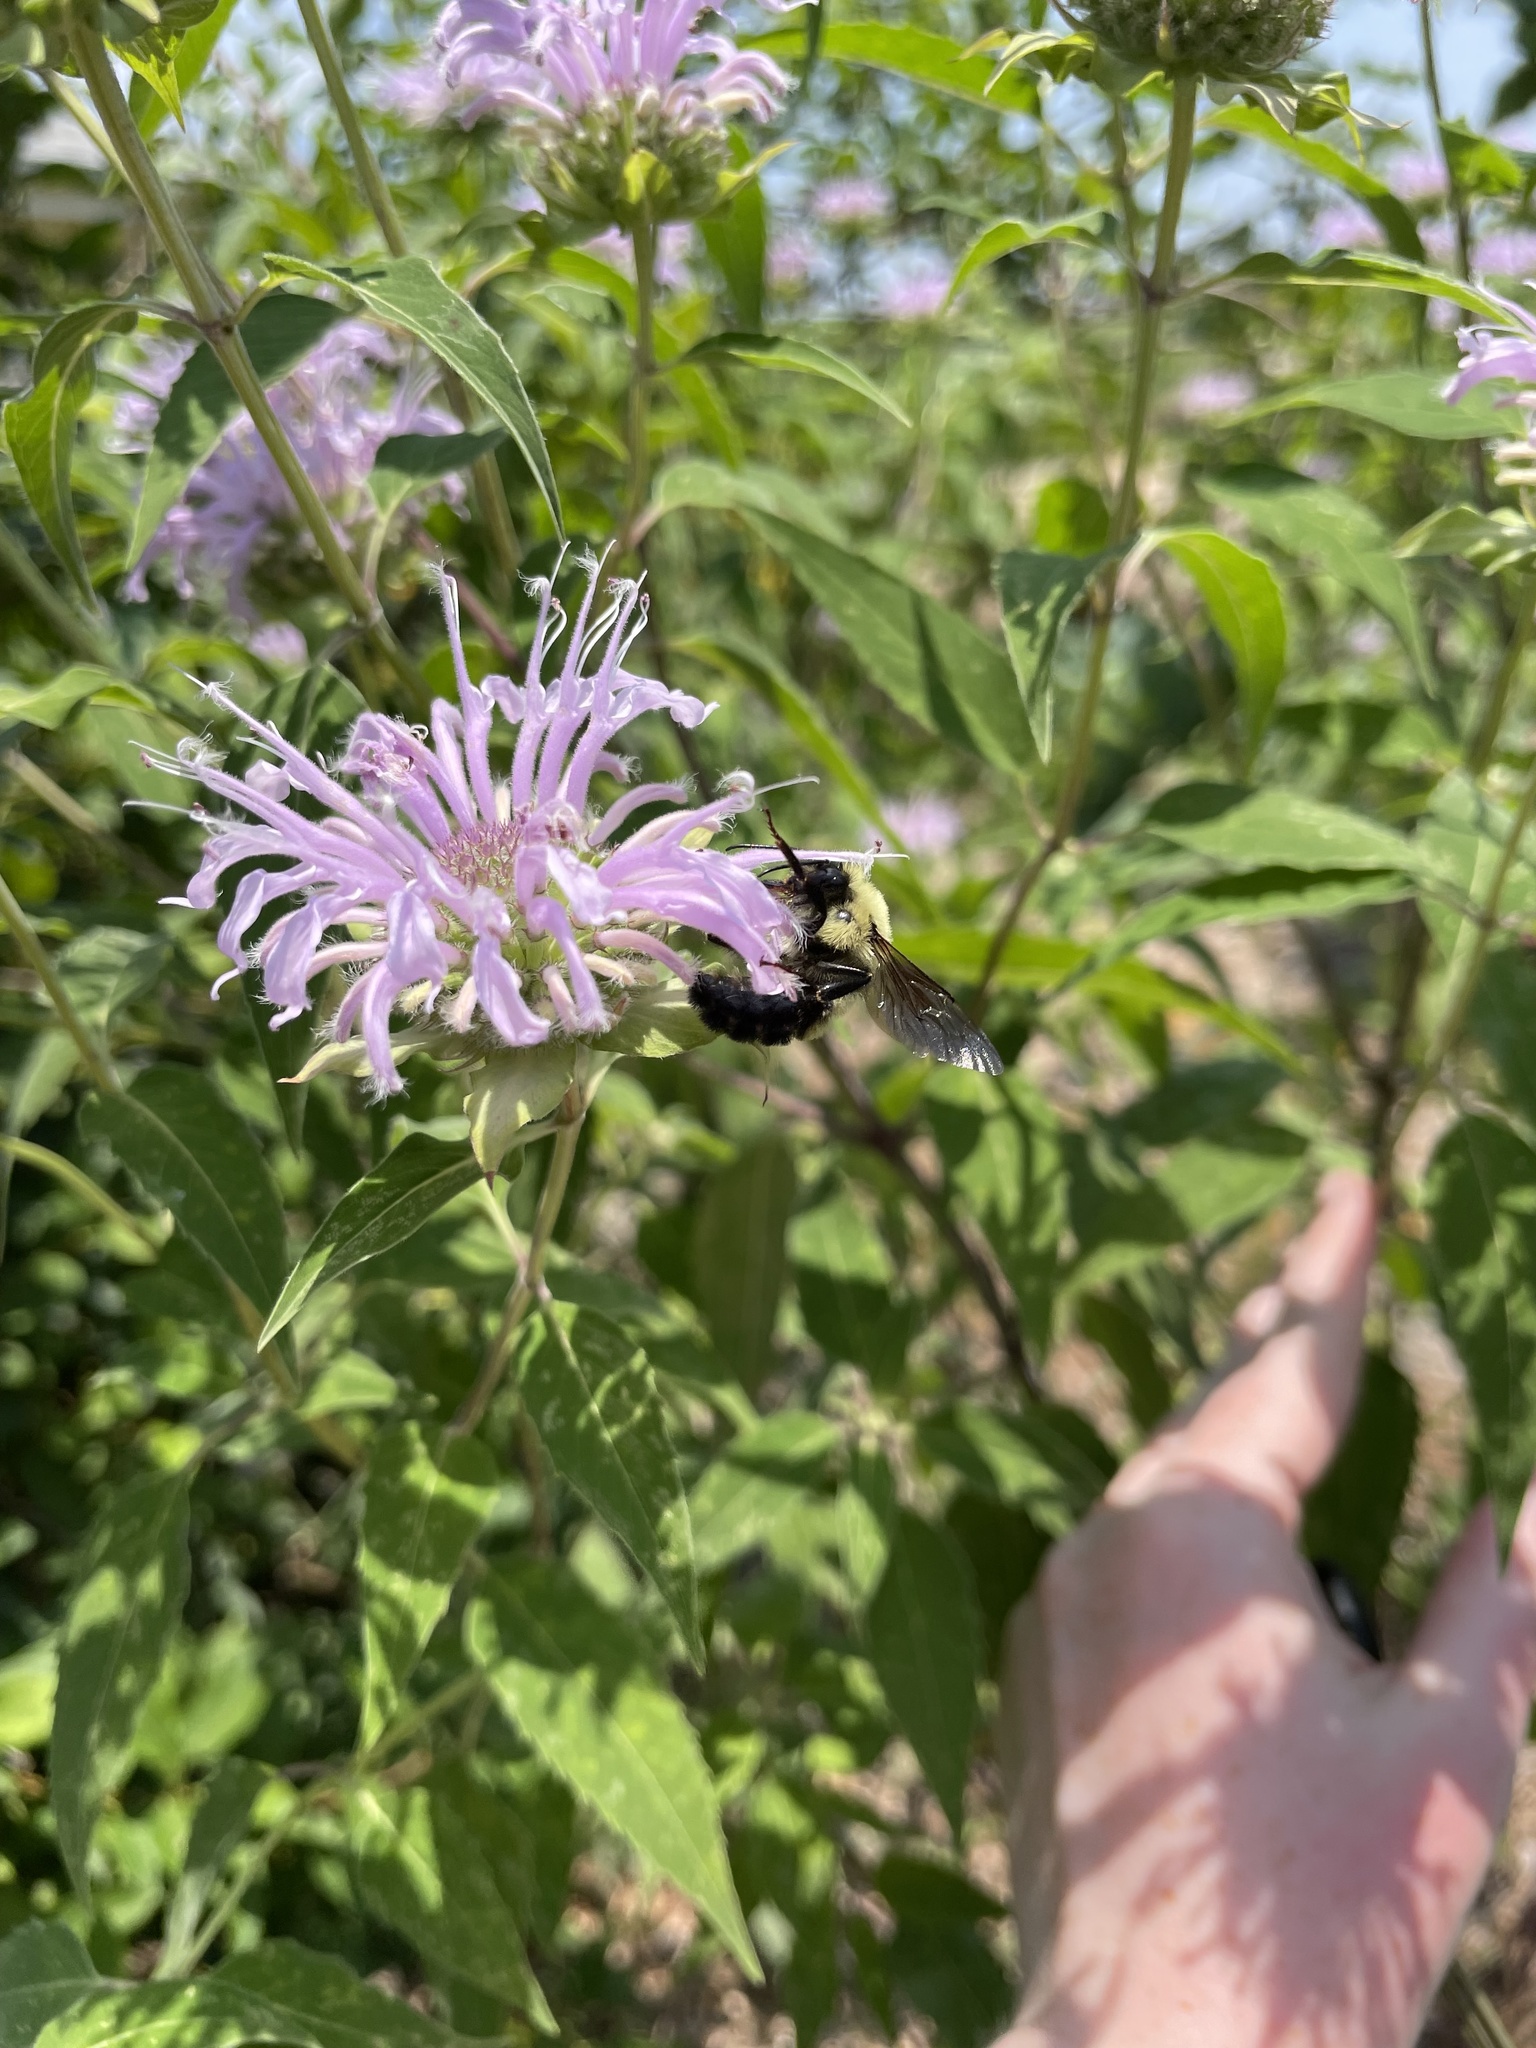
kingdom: Animalia
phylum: Arthropoda
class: Insecta
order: Hymenoptera
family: Apidae
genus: Bombus
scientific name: Bombus bimaculatus
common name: Two-spotted bumble bee
